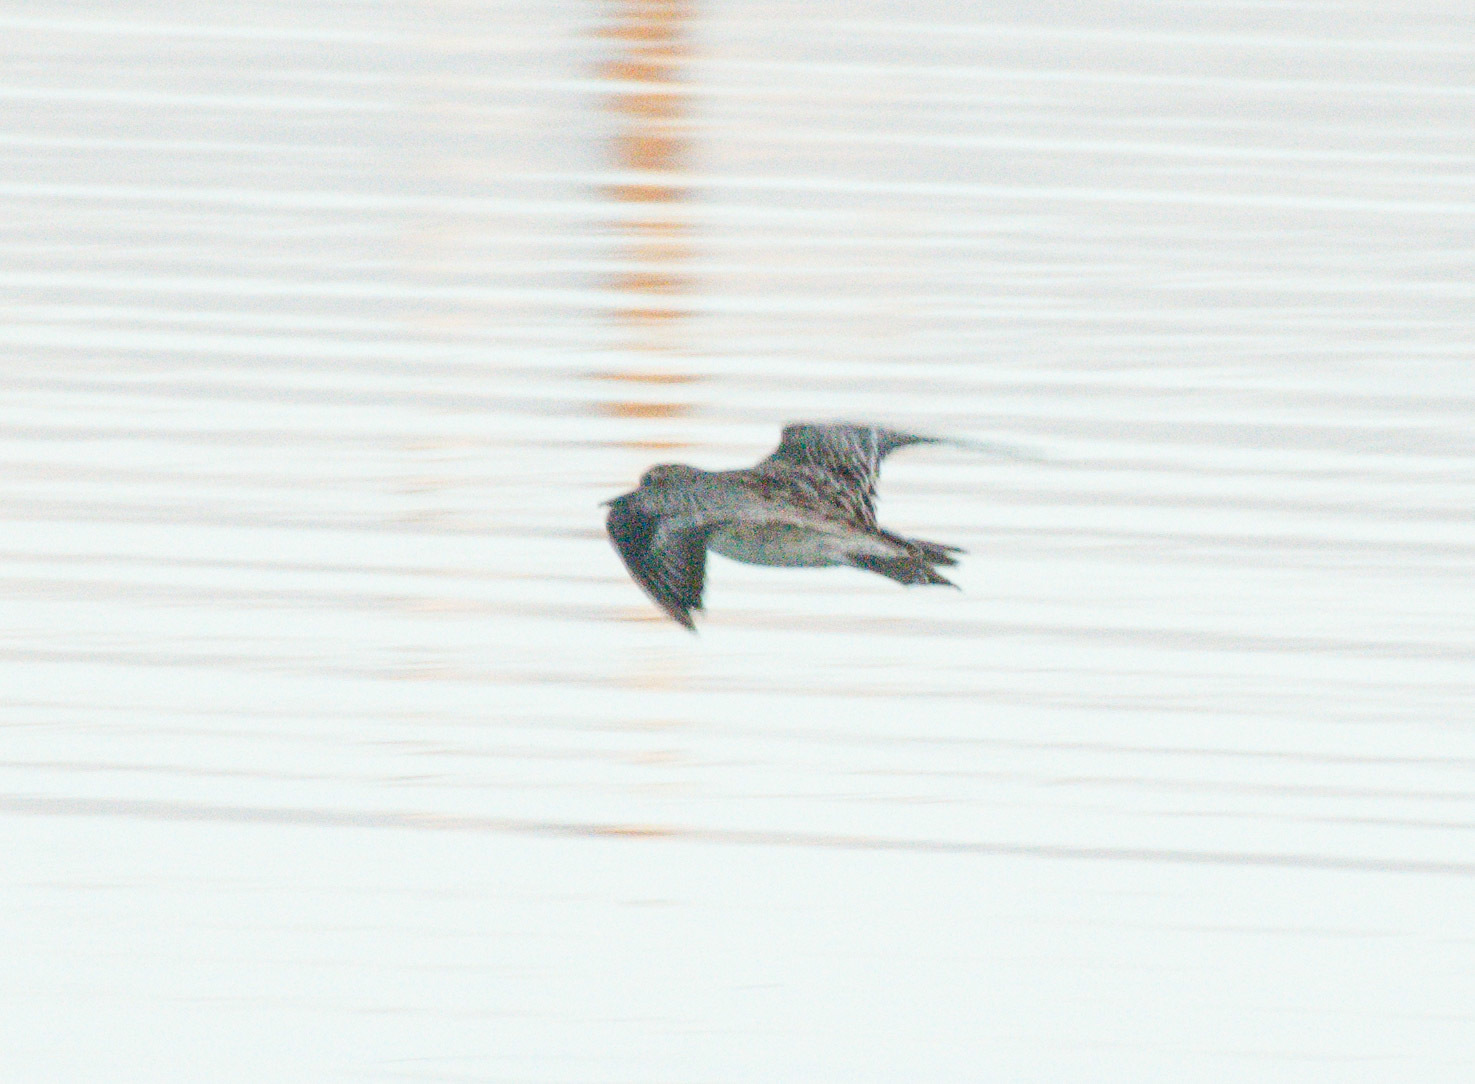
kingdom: Animalia
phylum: Chordata
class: Aves
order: Charadriiformes
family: Scolopacidae
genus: Calidris
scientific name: Calidris acuminata
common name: Sharp-tailed sandpiper
